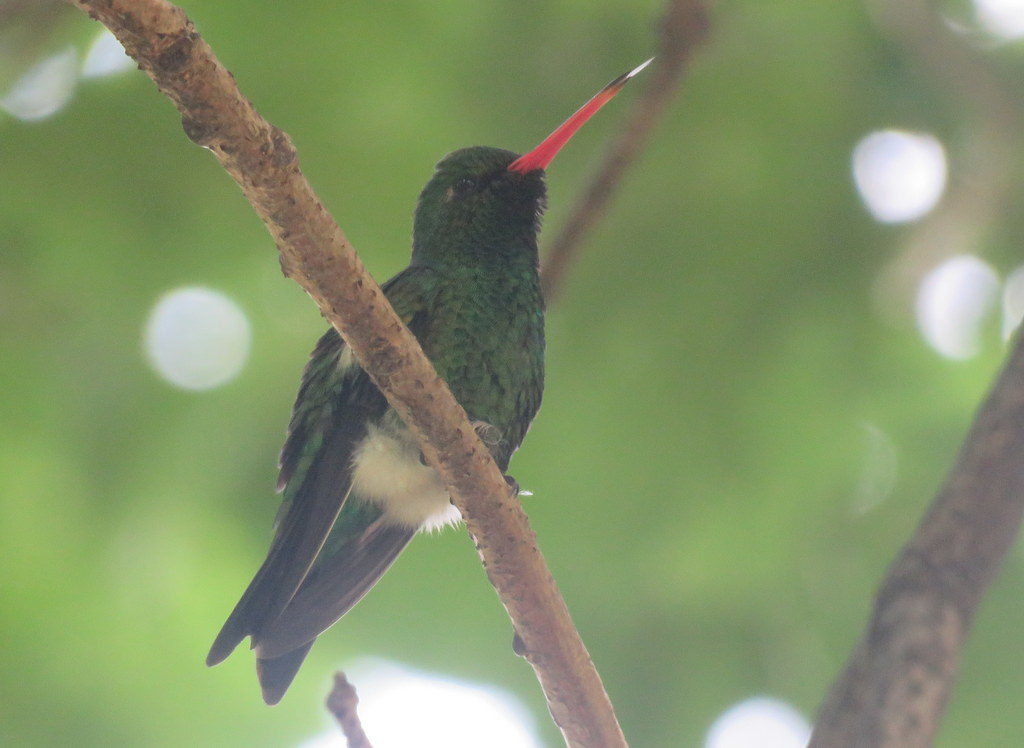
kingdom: Animalia
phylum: Chordata
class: Aves
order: Apodiformes
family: Trochilidae
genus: Chlorostilbon
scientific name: Chlorostilbon lucidus
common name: Glittering-bellied emerald
